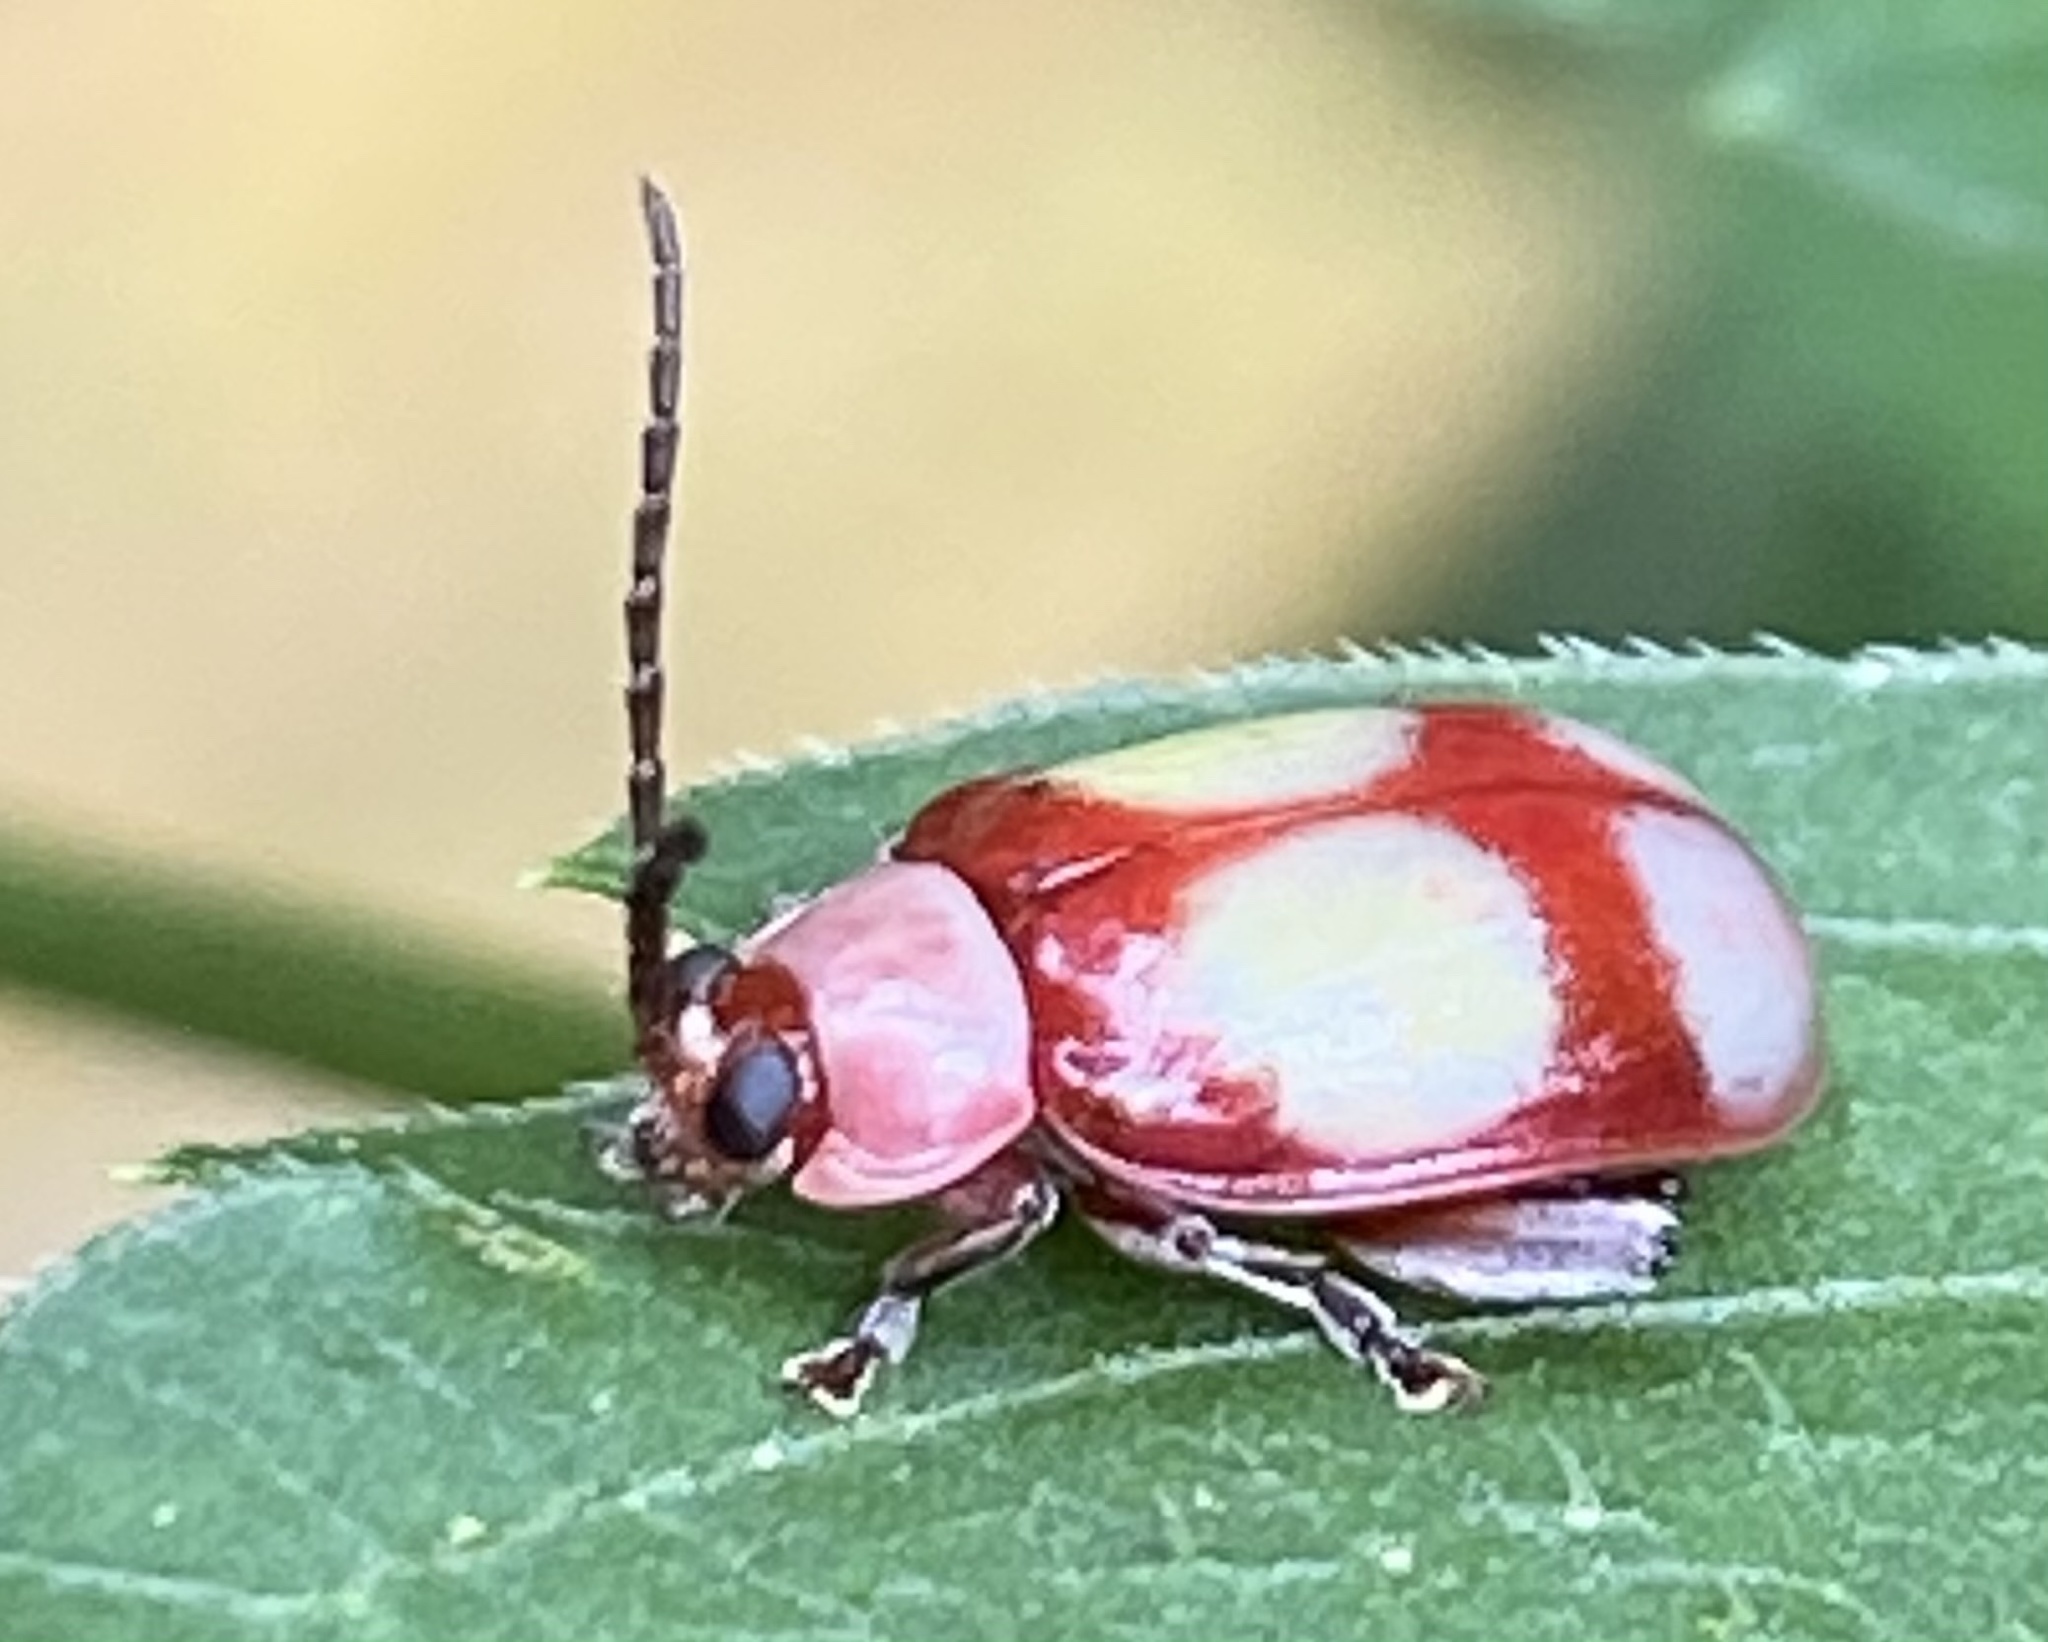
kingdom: Animalia
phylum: Arthropoda
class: Insecta
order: Coleoptera
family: Chrysomelidae
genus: Omophoita
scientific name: Omophoita
